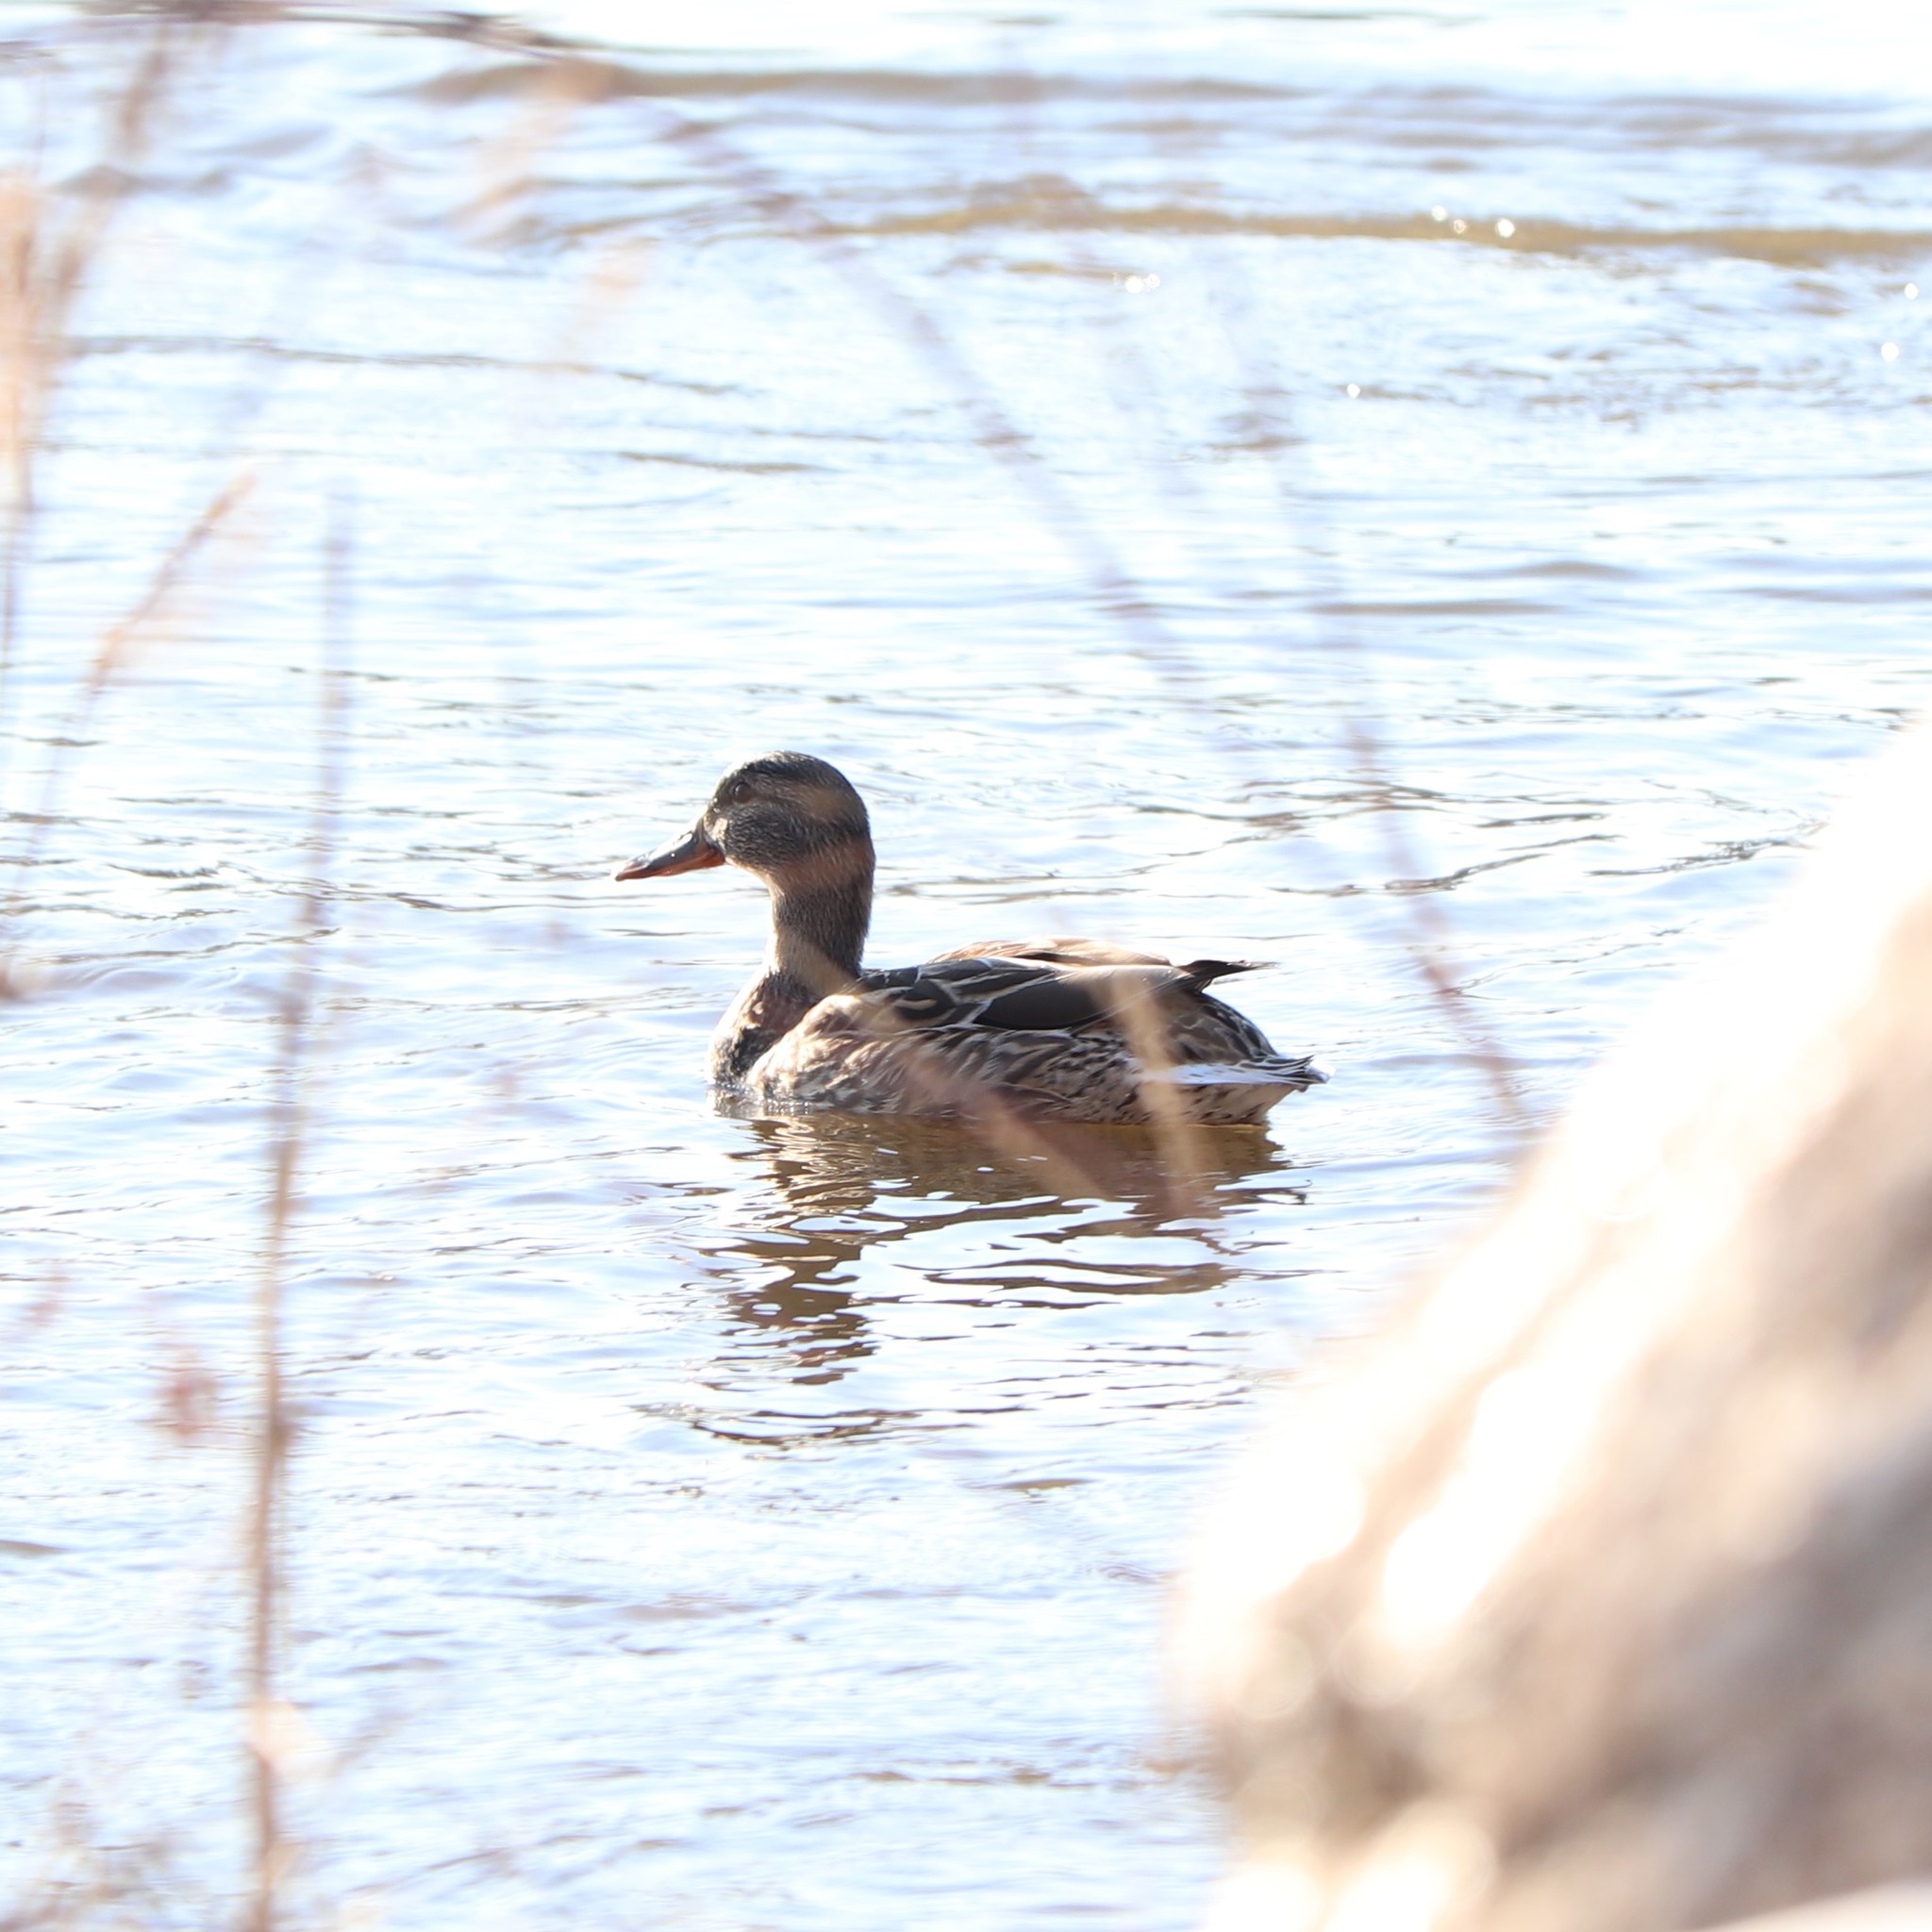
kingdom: Animalia
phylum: Chordata
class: Aves
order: Anseriformes
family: Anatidae
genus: Anas
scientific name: Anas platyrhynchos
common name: Mallard
